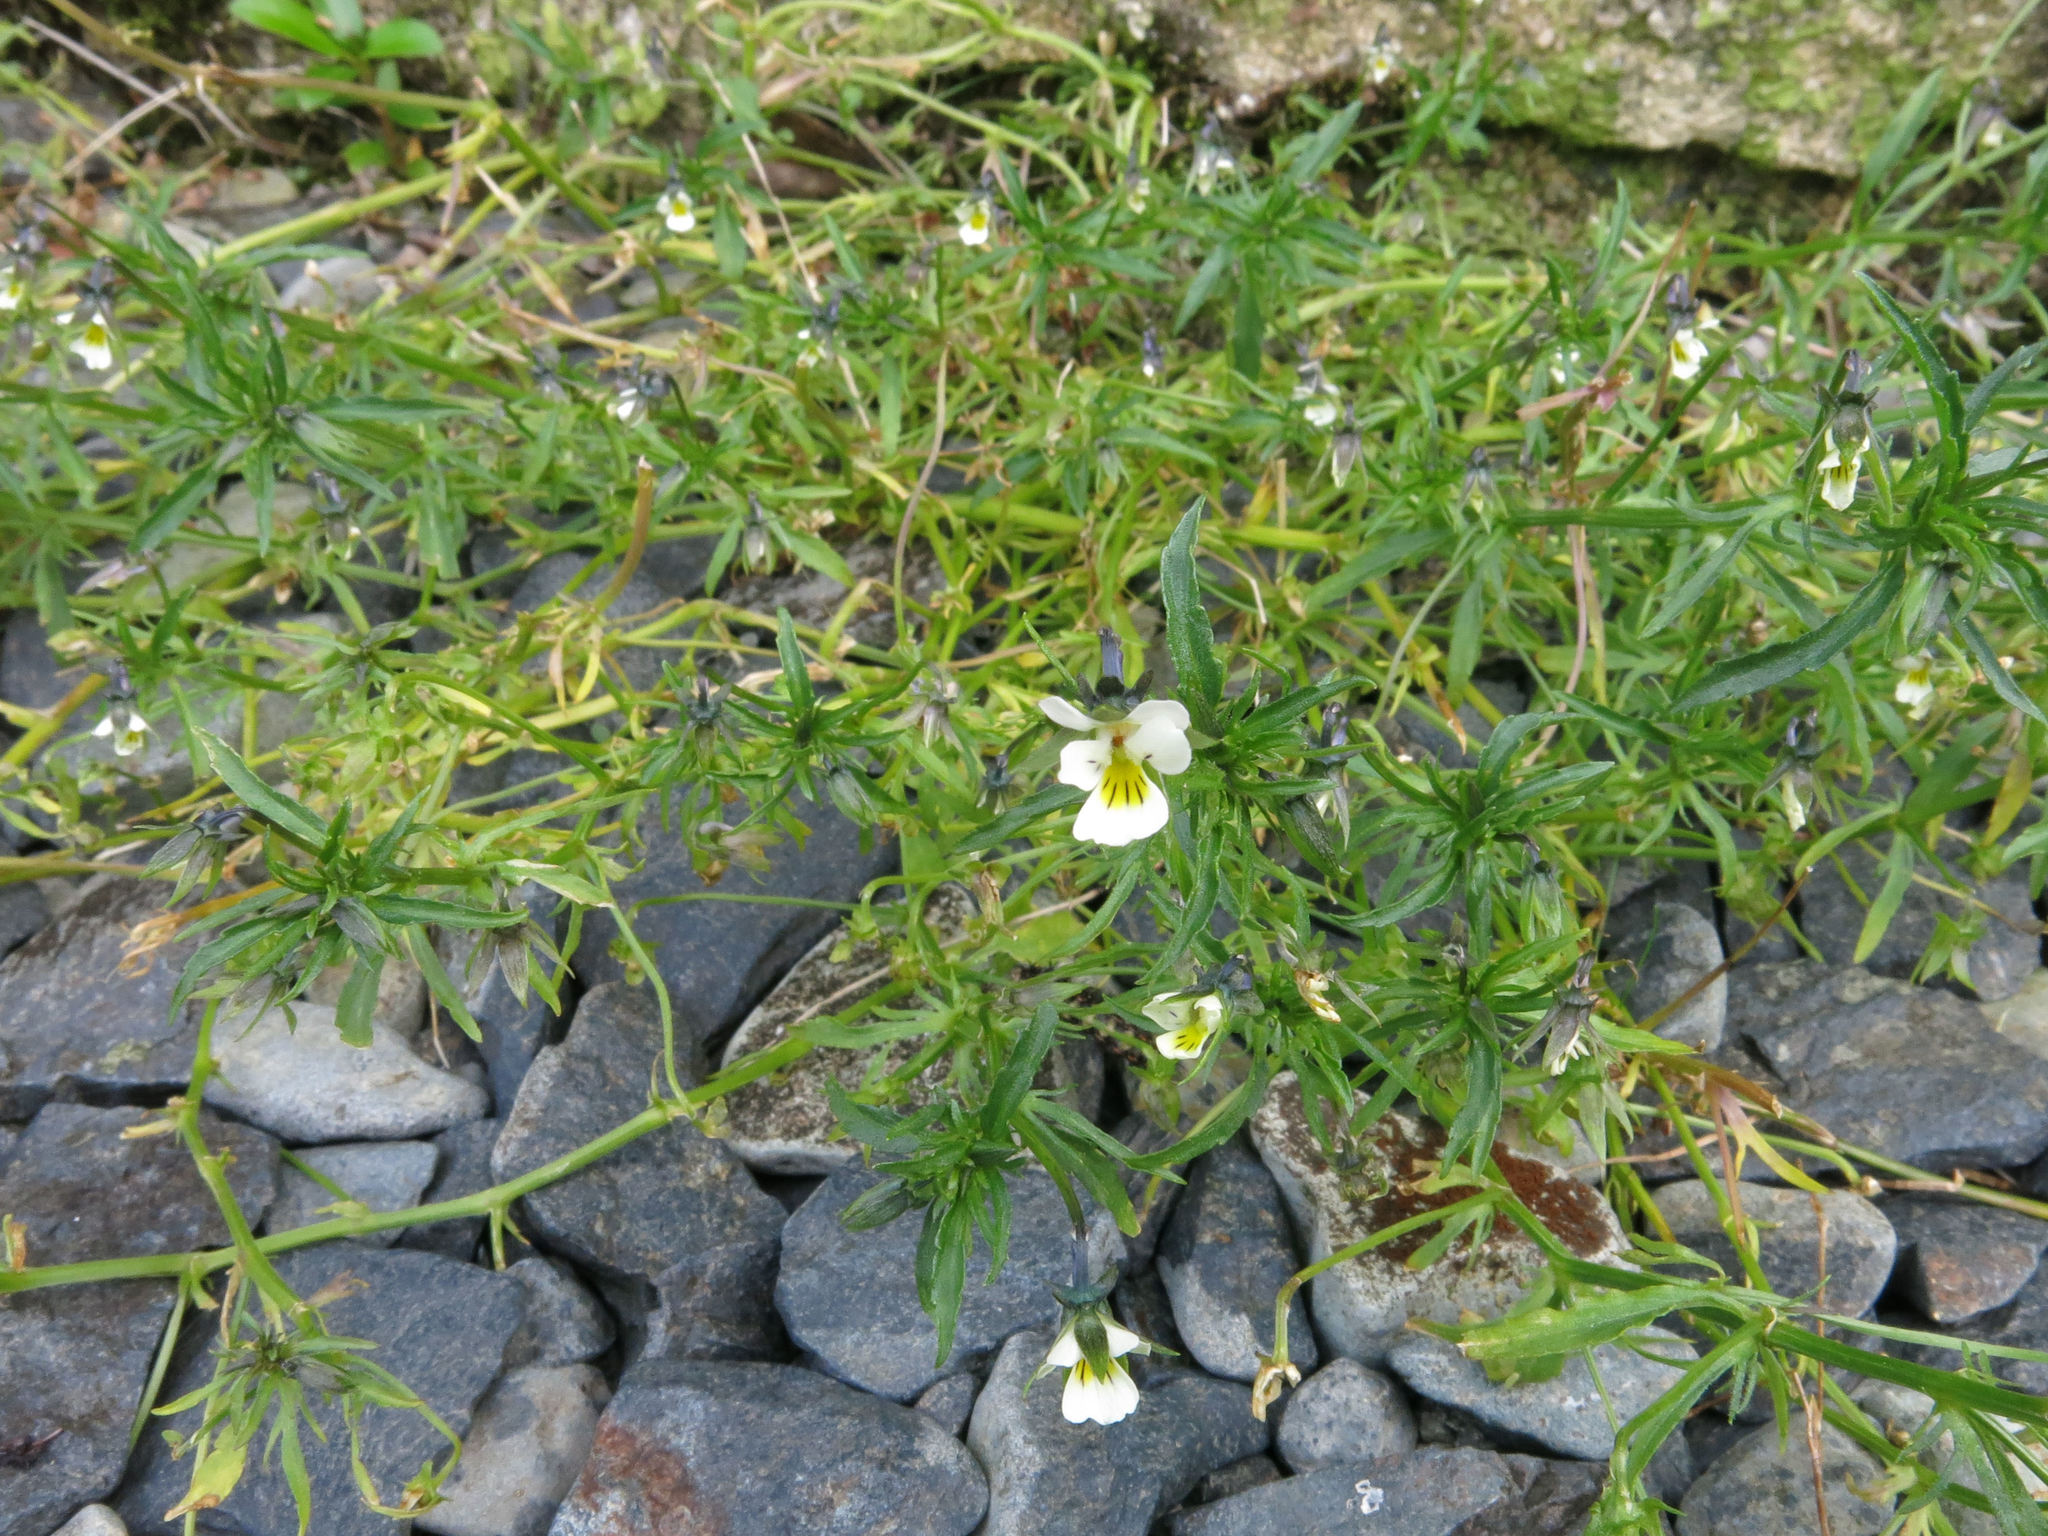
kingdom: Plantae
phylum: Tracheophyta
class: Magnoliopsida
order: Malpighiales
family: Violaceae
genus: Viola
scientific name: Viola arvensis
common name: Field pansy
